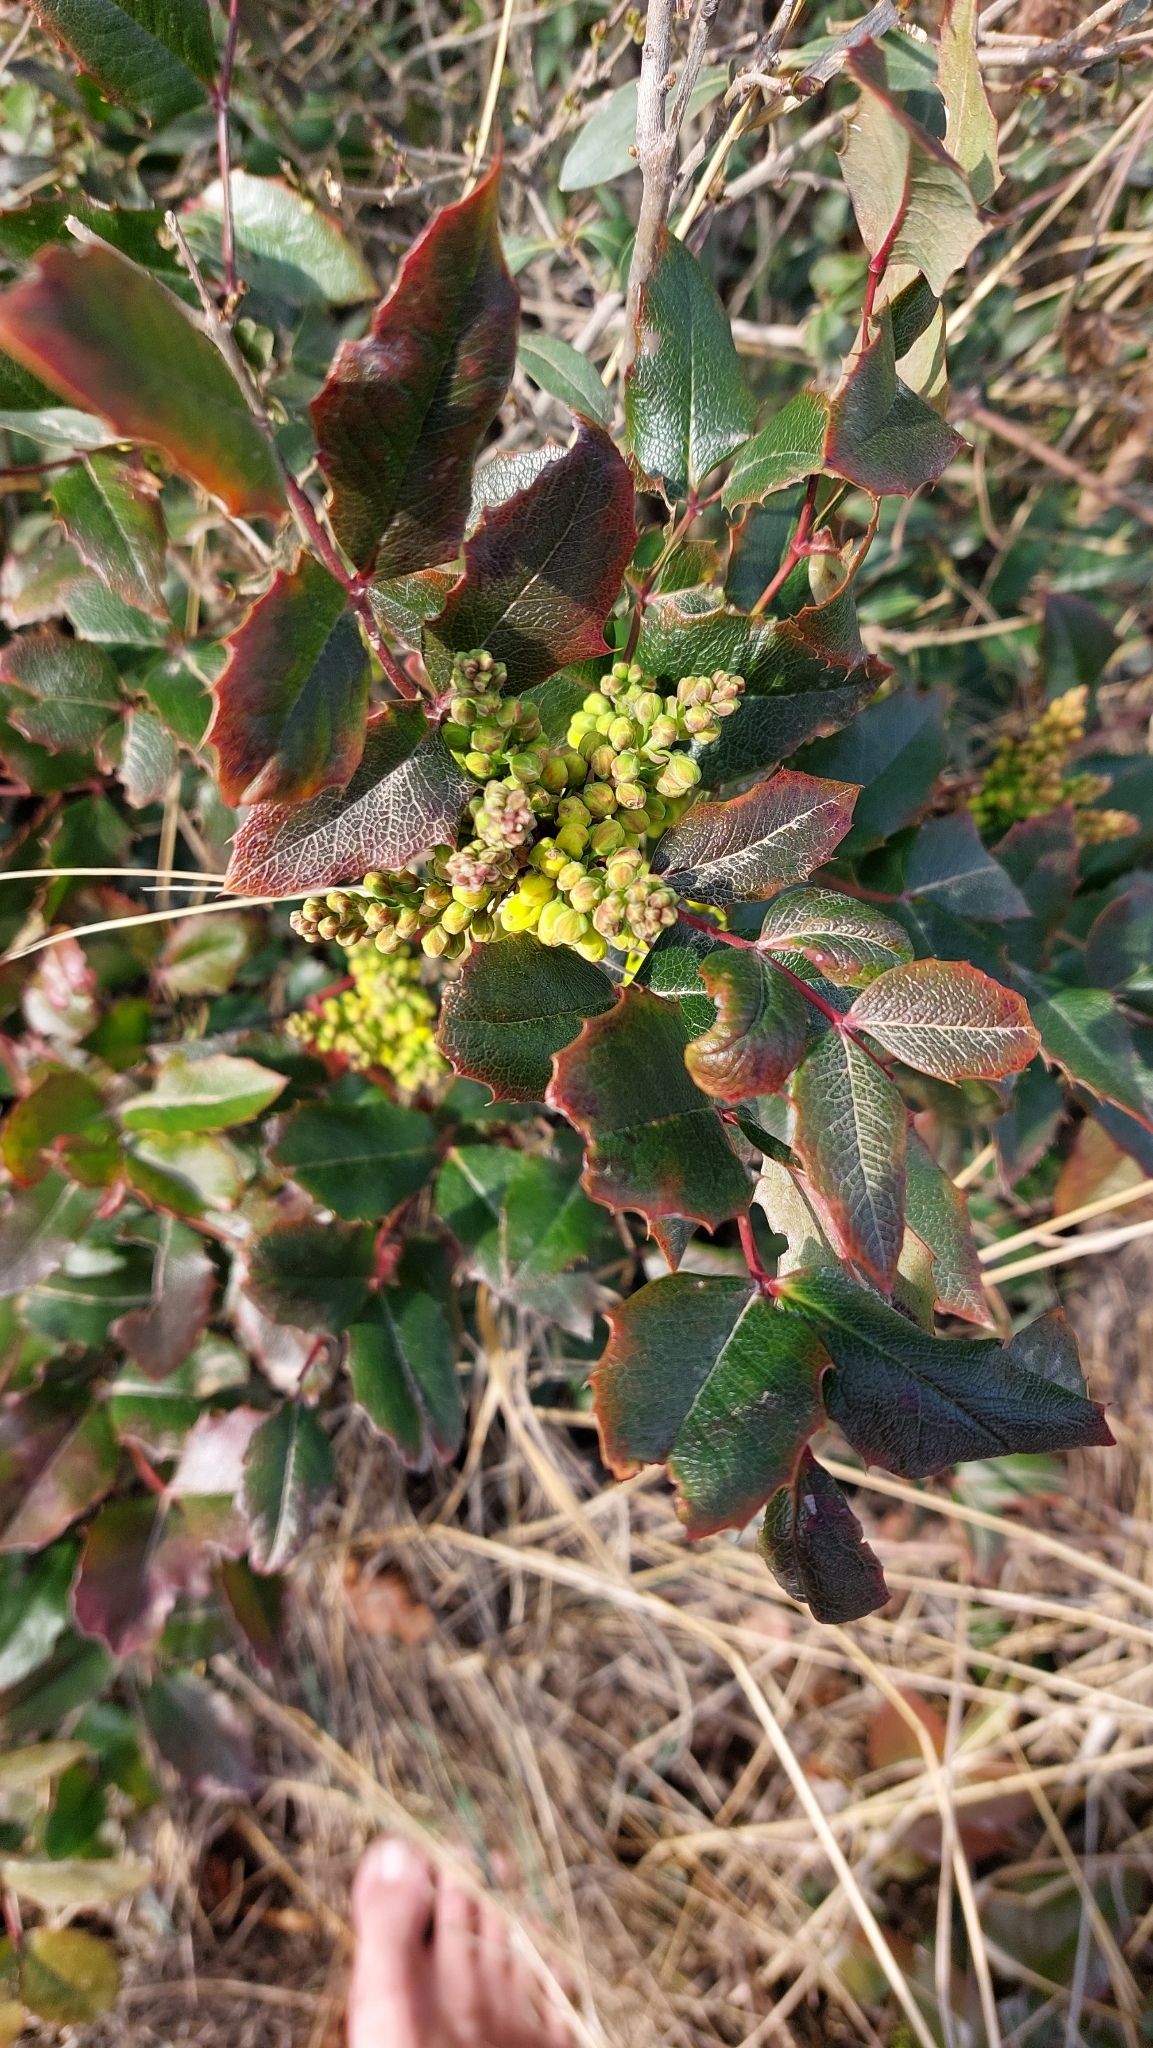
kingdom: Plantae
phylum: Tracheophyta
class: Magnoliopsida
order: Ranunculales
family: Berberidaceae
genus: Mahonia
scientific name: Mahonia aquifolium
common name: Oregon-grape
